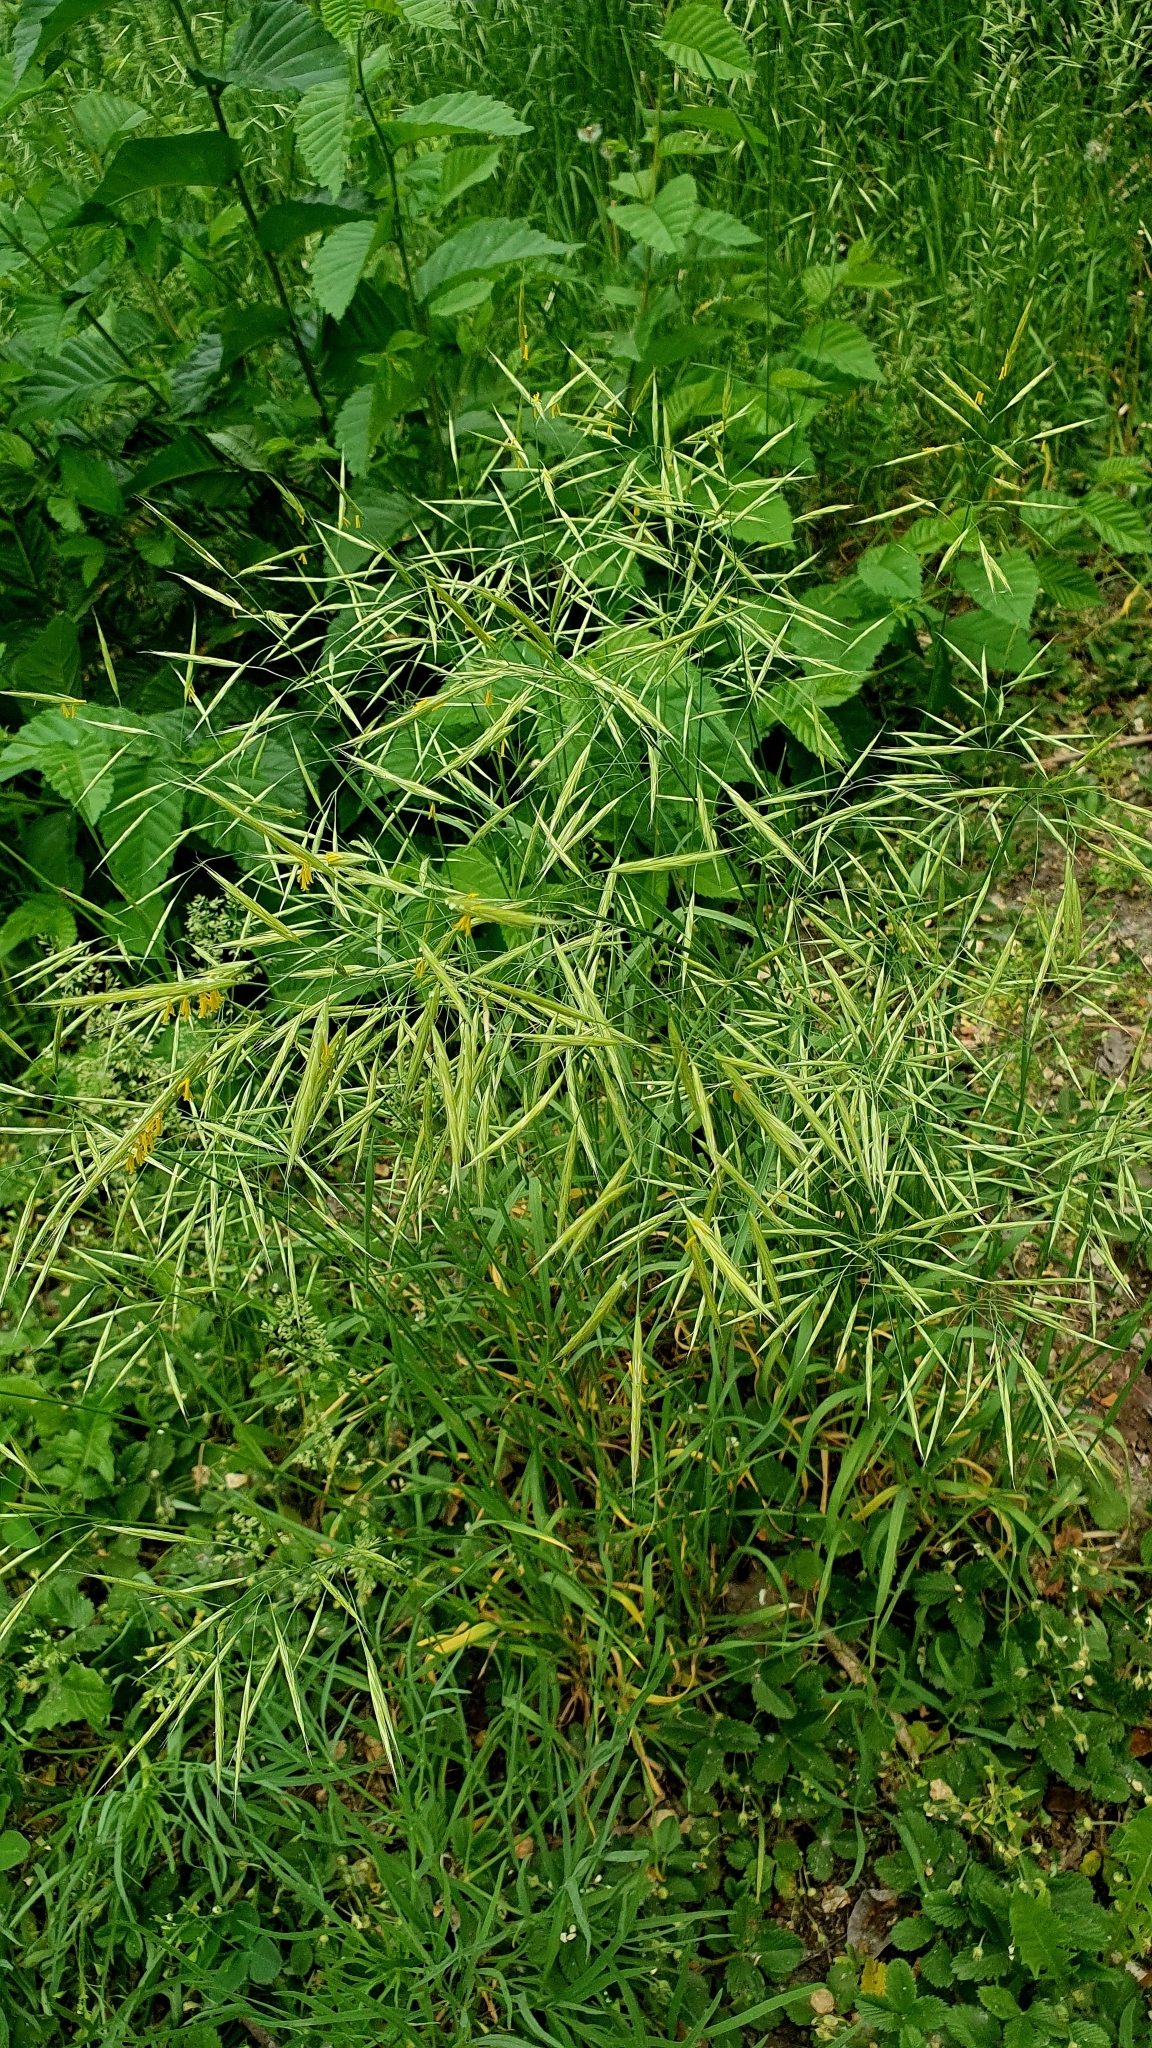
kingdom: Plantae
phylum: Tracheophyta
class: Liliopsida
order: Poales
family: Poaceae
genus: Bromus
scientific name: Bromus inermis
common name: Smooth brome
